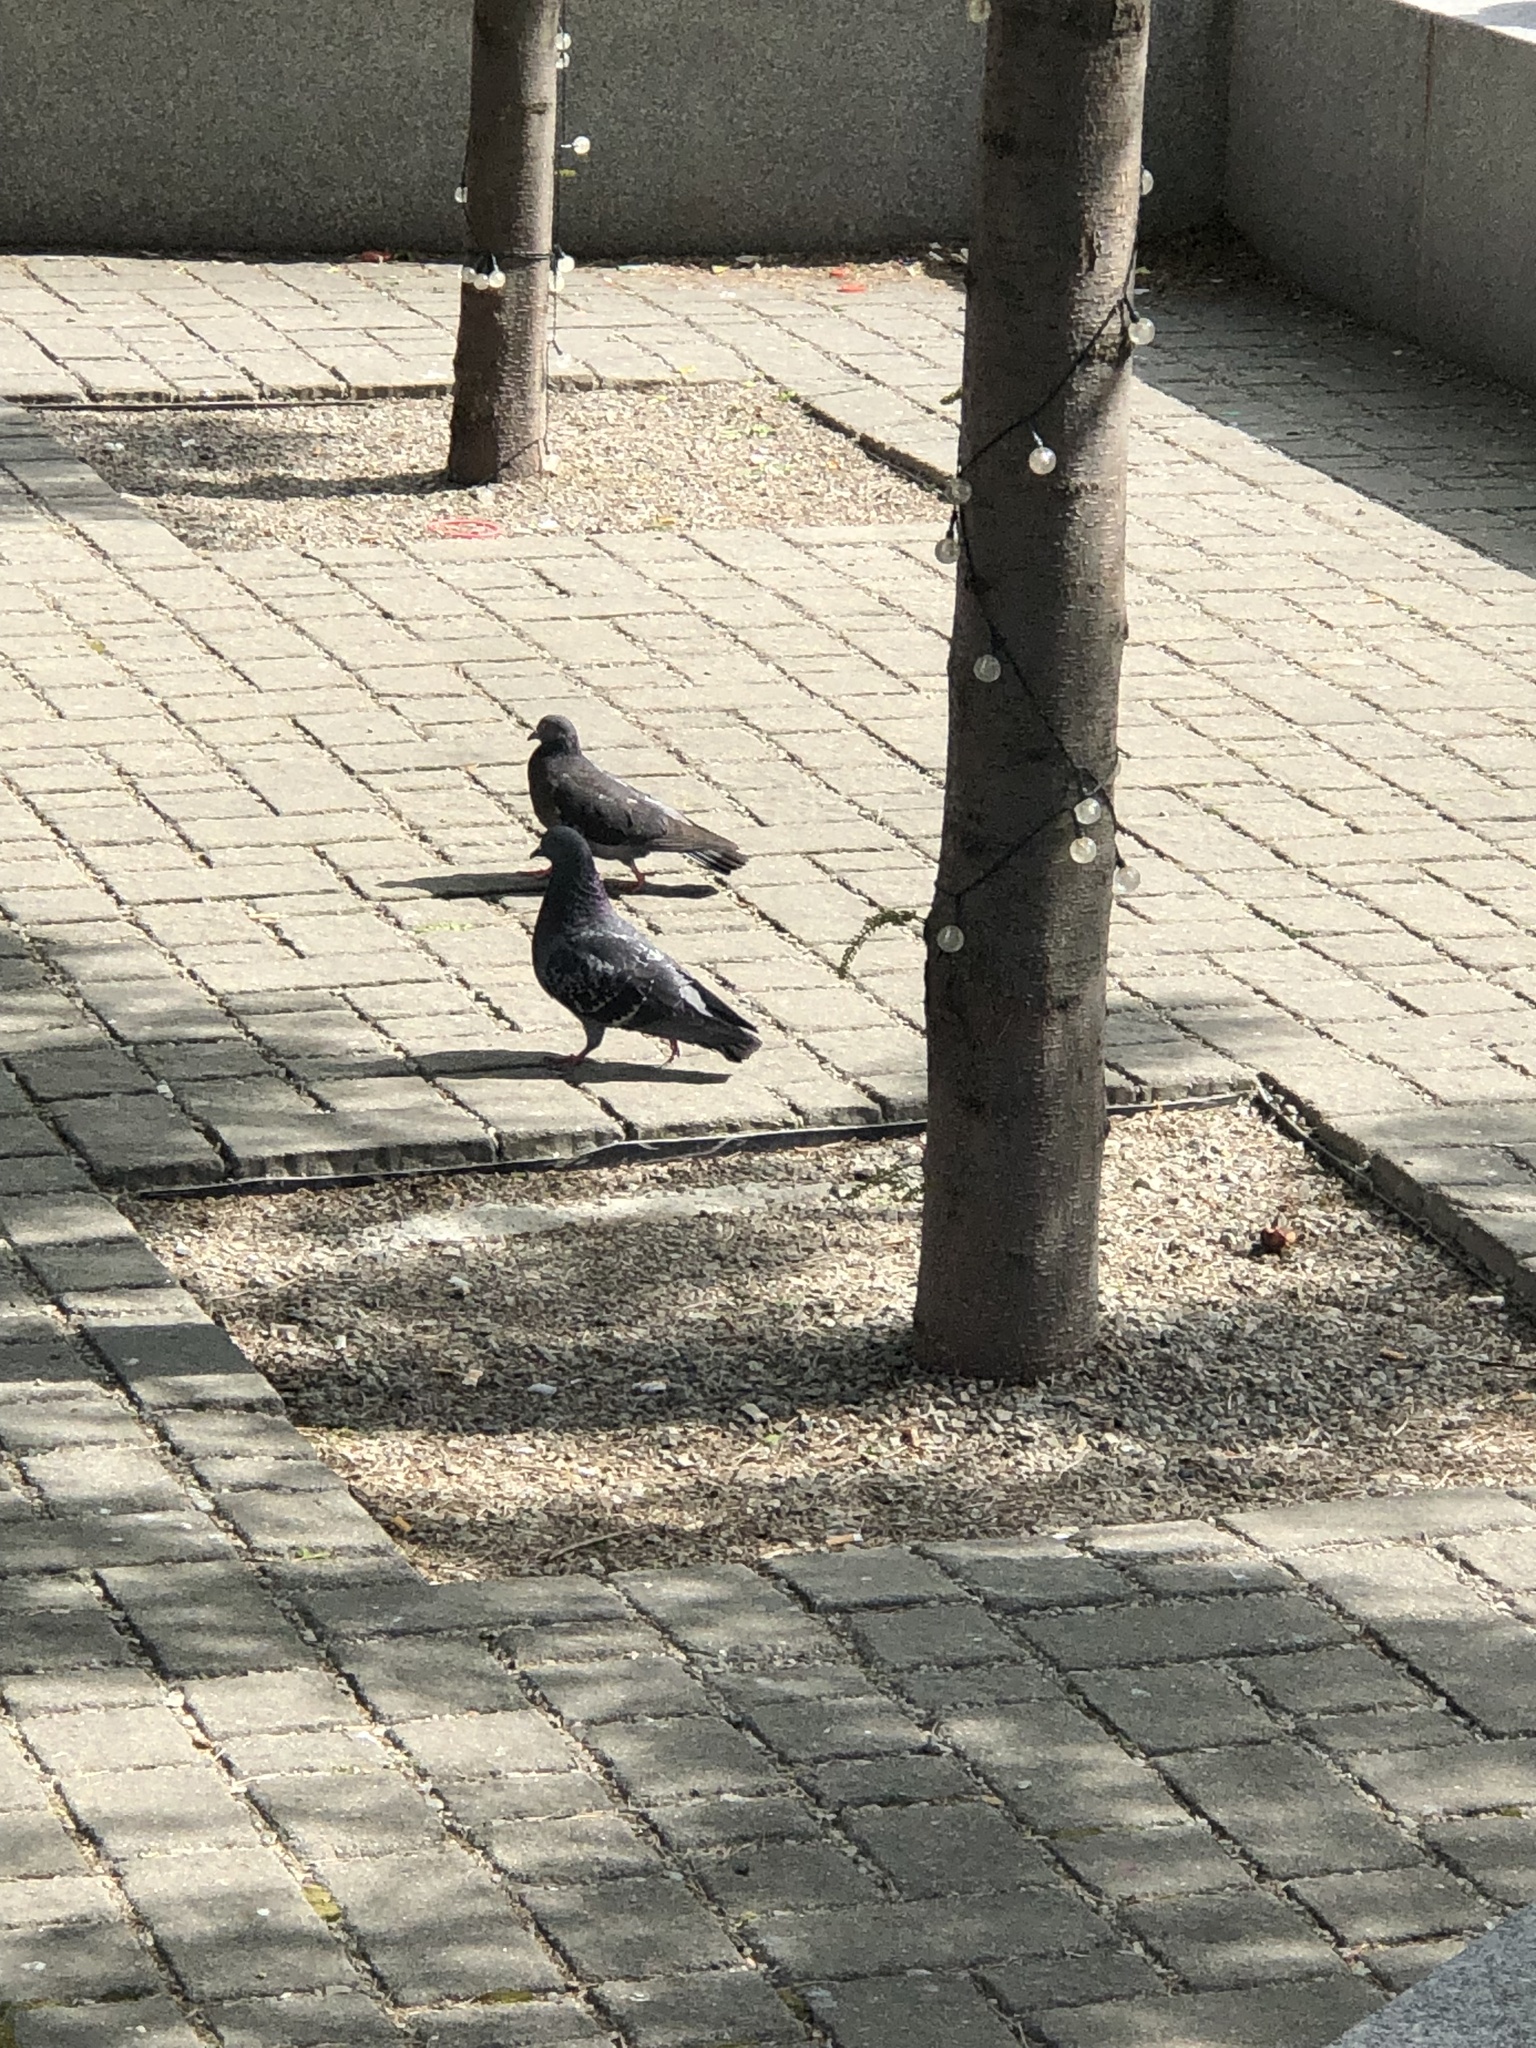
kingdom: Animalia
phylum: Chordata
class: Aves
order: Columbiformes
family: Columbidae
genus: Columba
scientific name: Columba livia
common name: Rock pigeon
